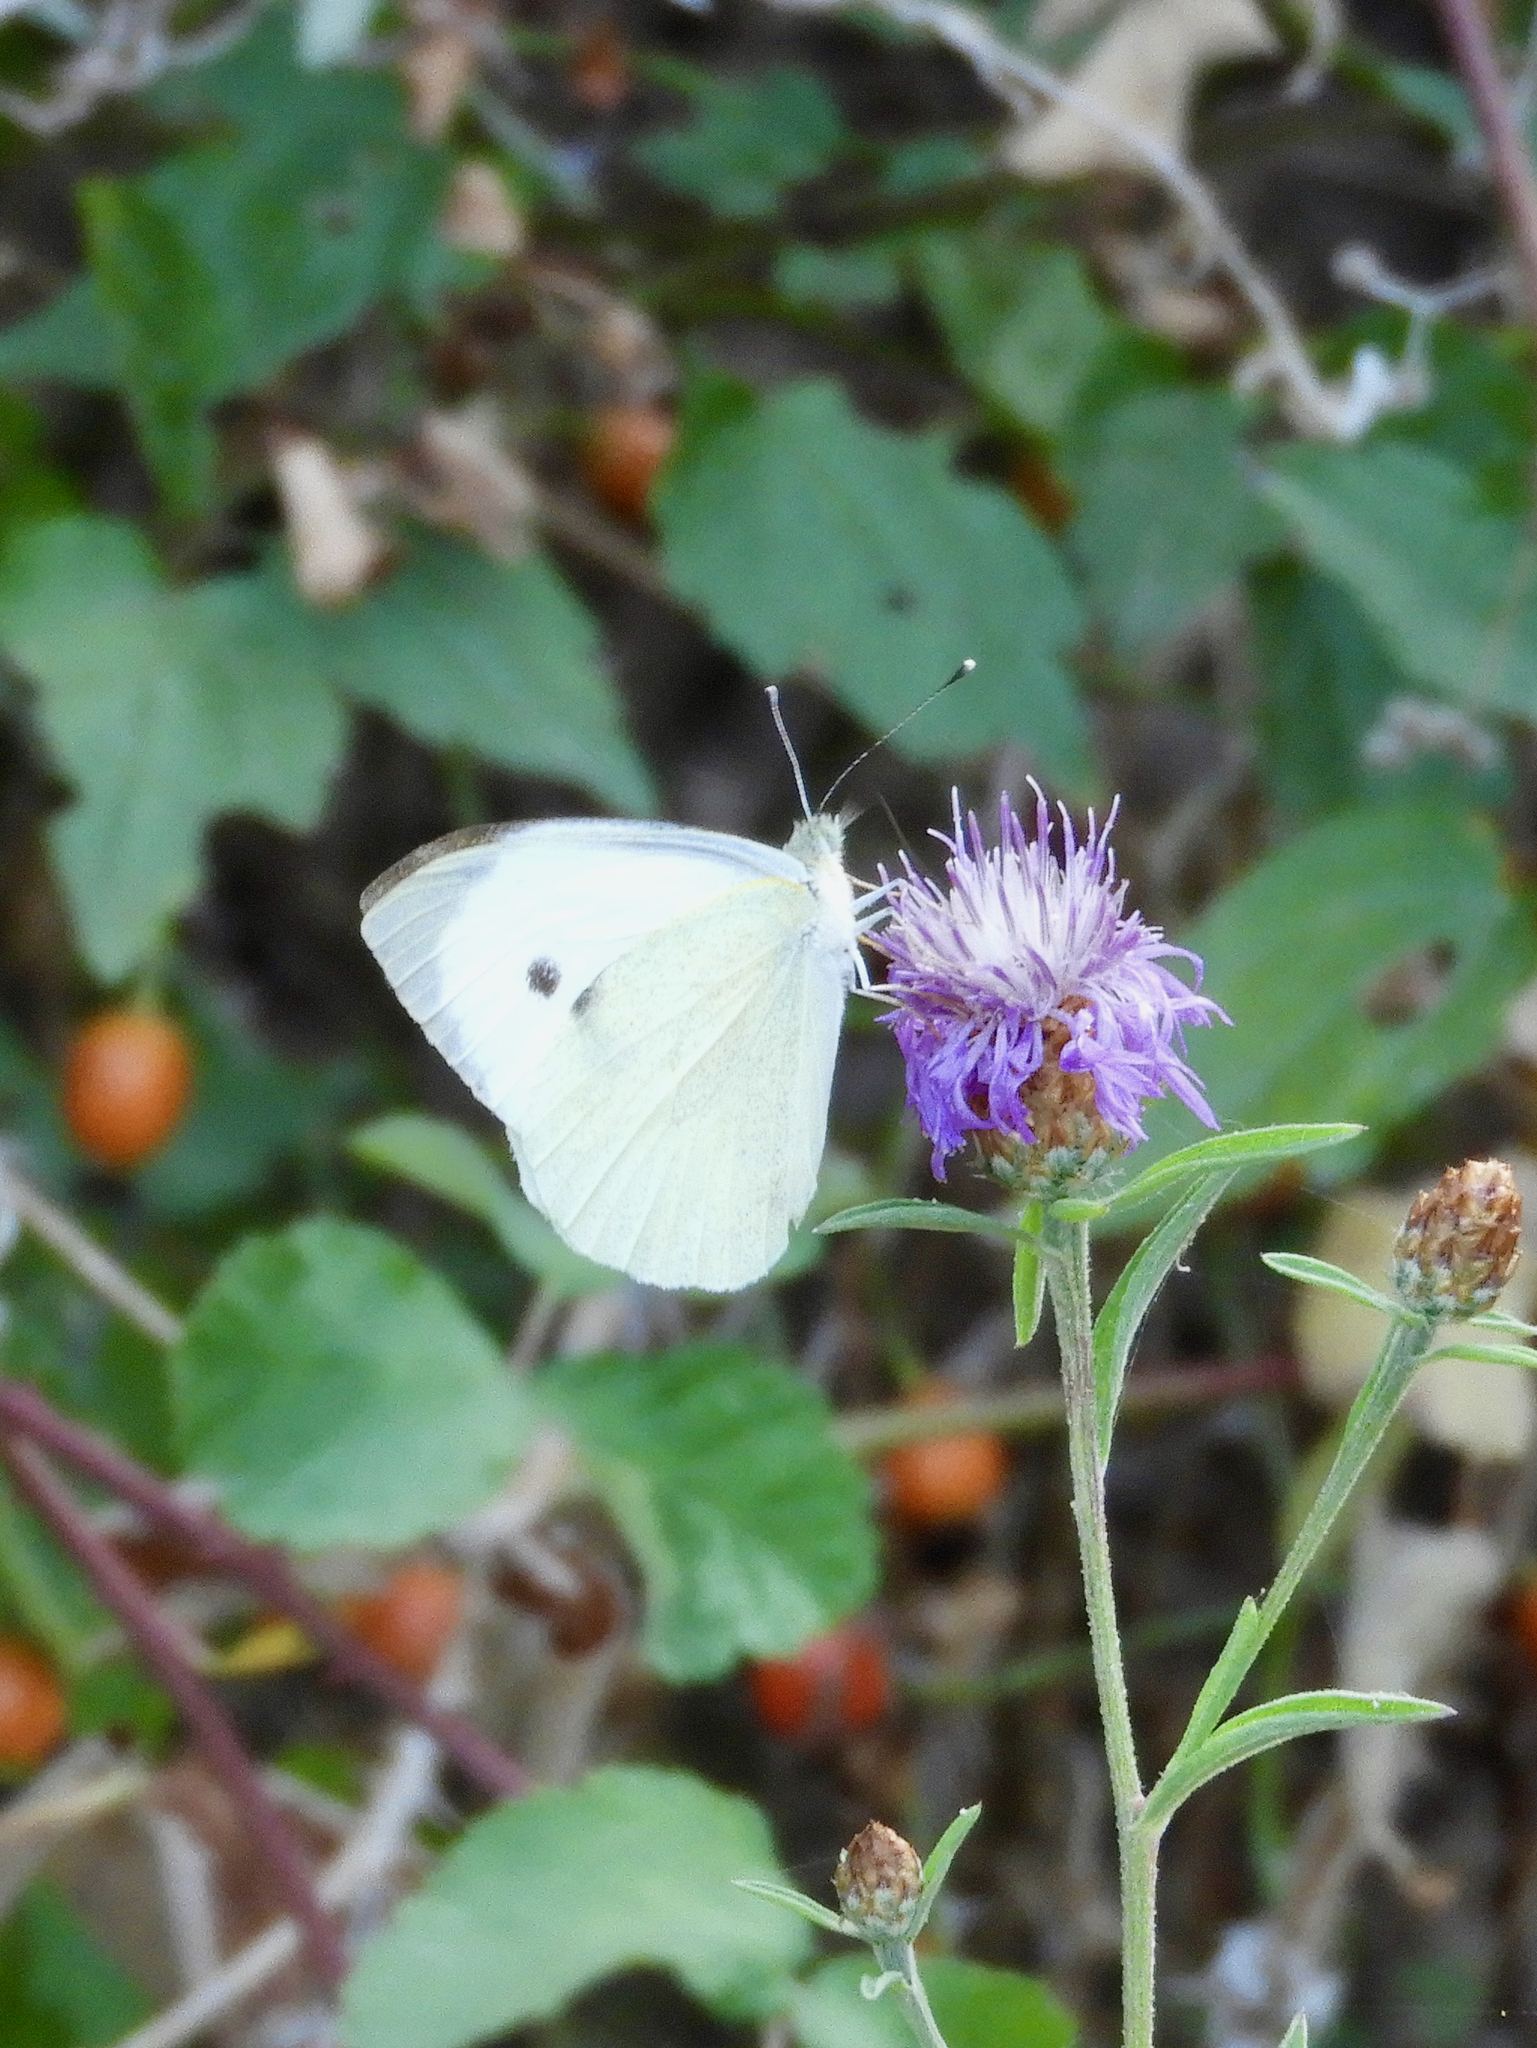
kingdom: Animalia
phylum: Arthropoda
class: Insecta
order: Lepidoptera
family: Pieridae
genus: Pieris
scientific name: Pieris brassicae
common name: Large white
